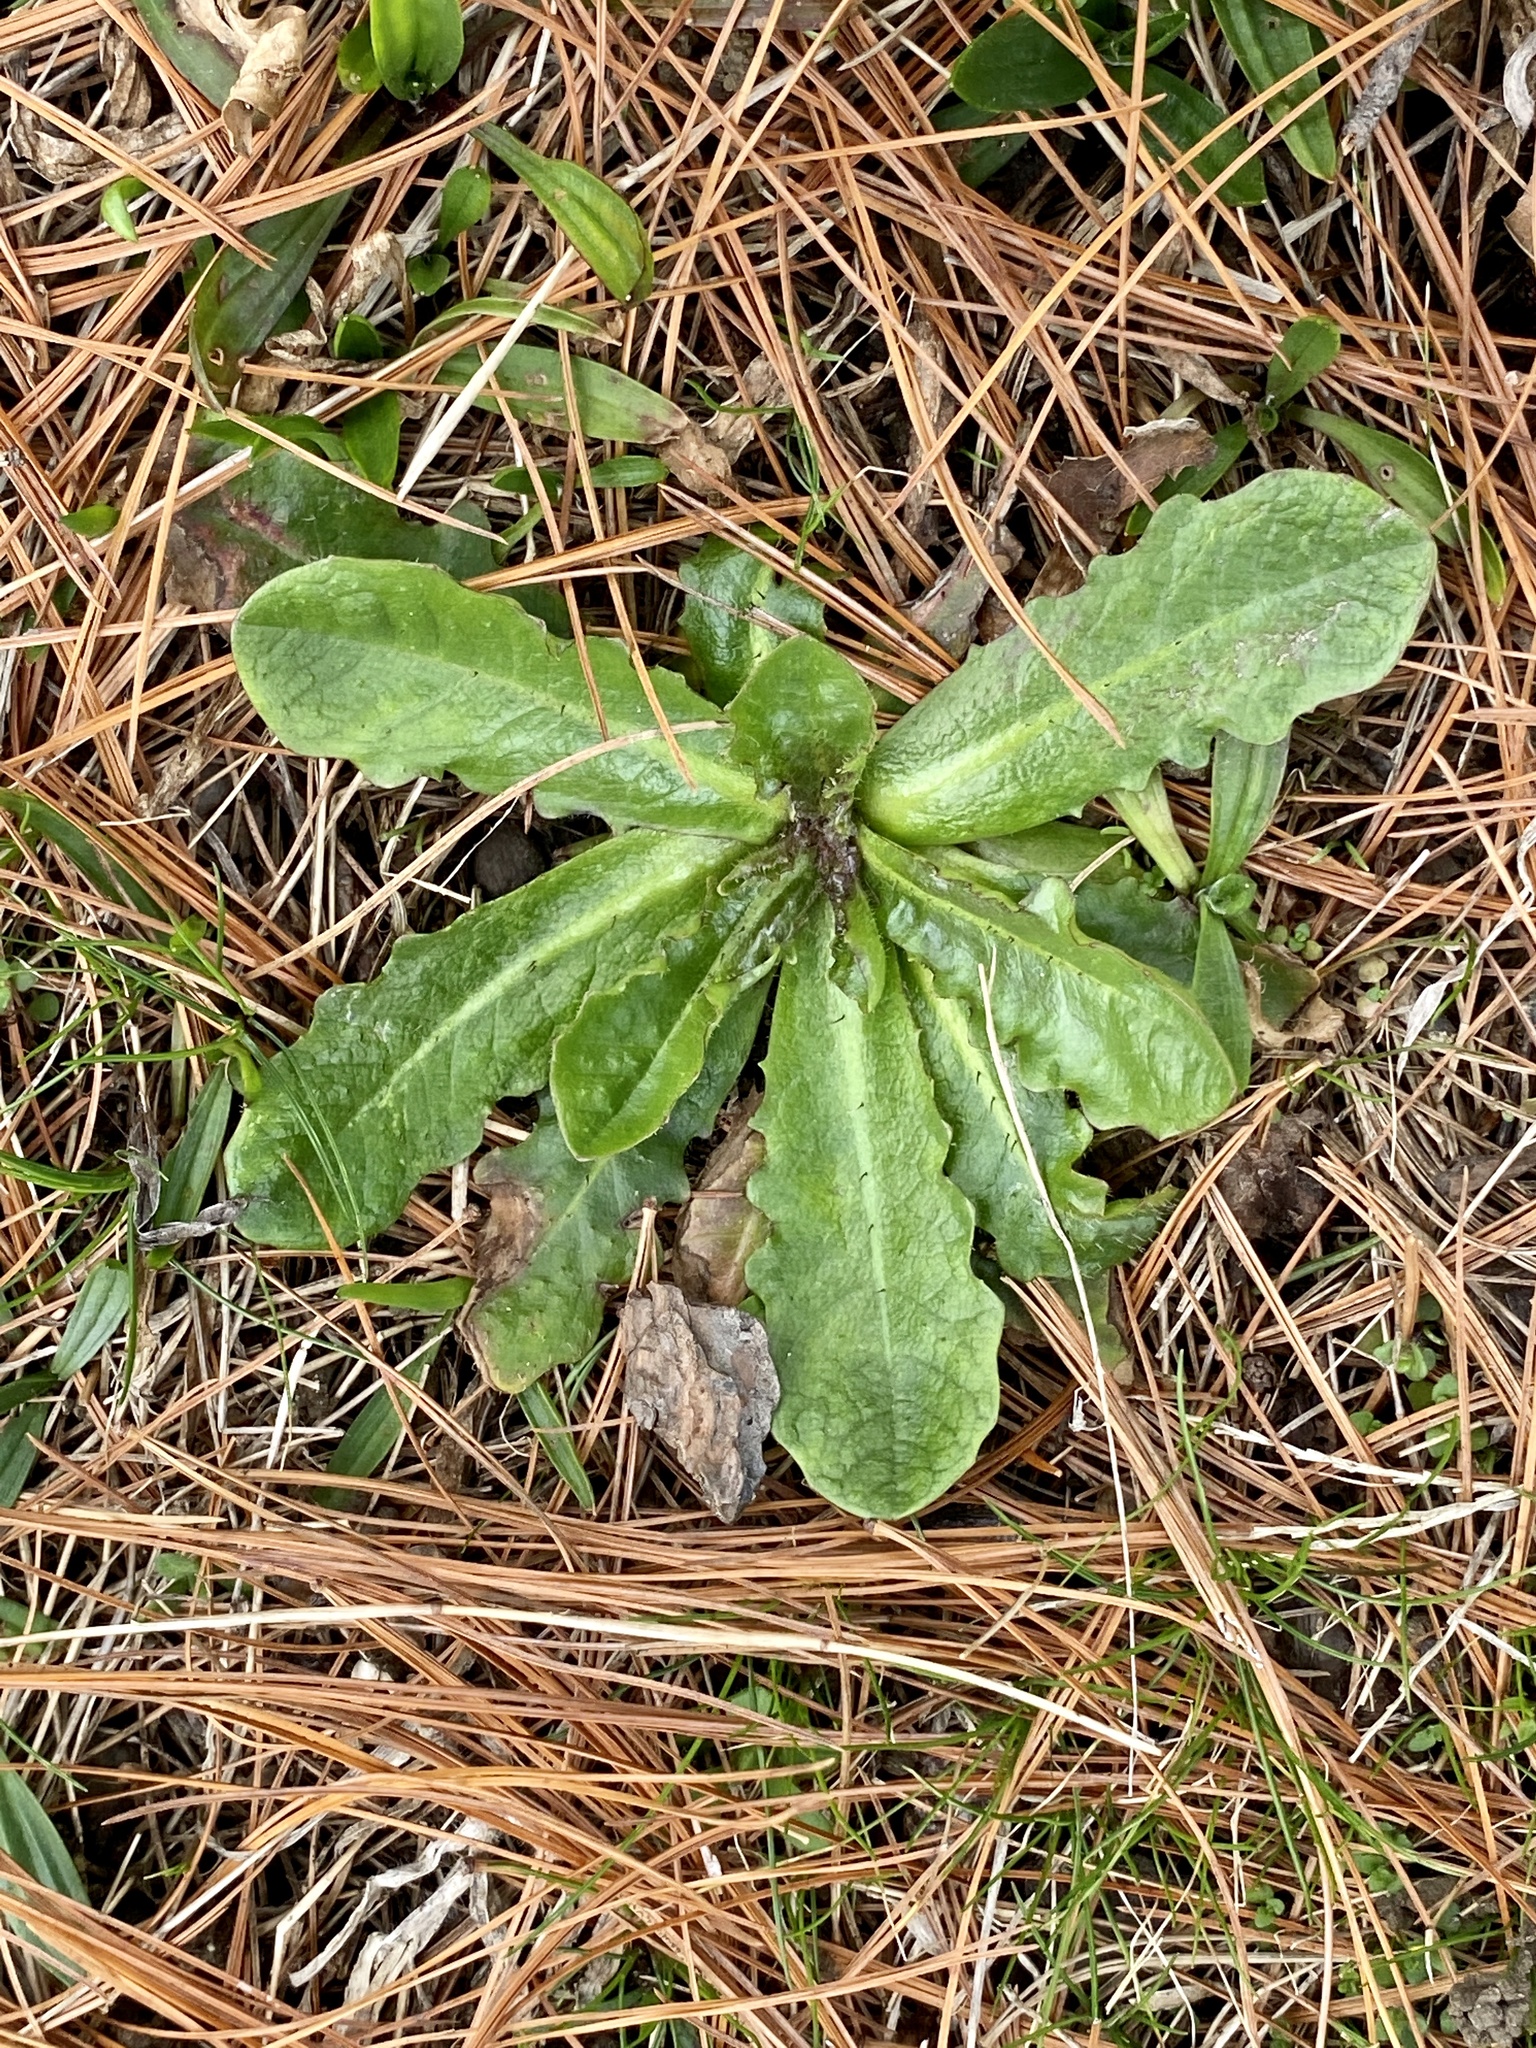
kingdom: Plantae
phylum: Tracheophyta
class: Magnoliopsida
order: Asterales
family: Asteraceae
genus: Hypochaeris
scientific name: Hypochaeris radicata
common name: Flatweed
